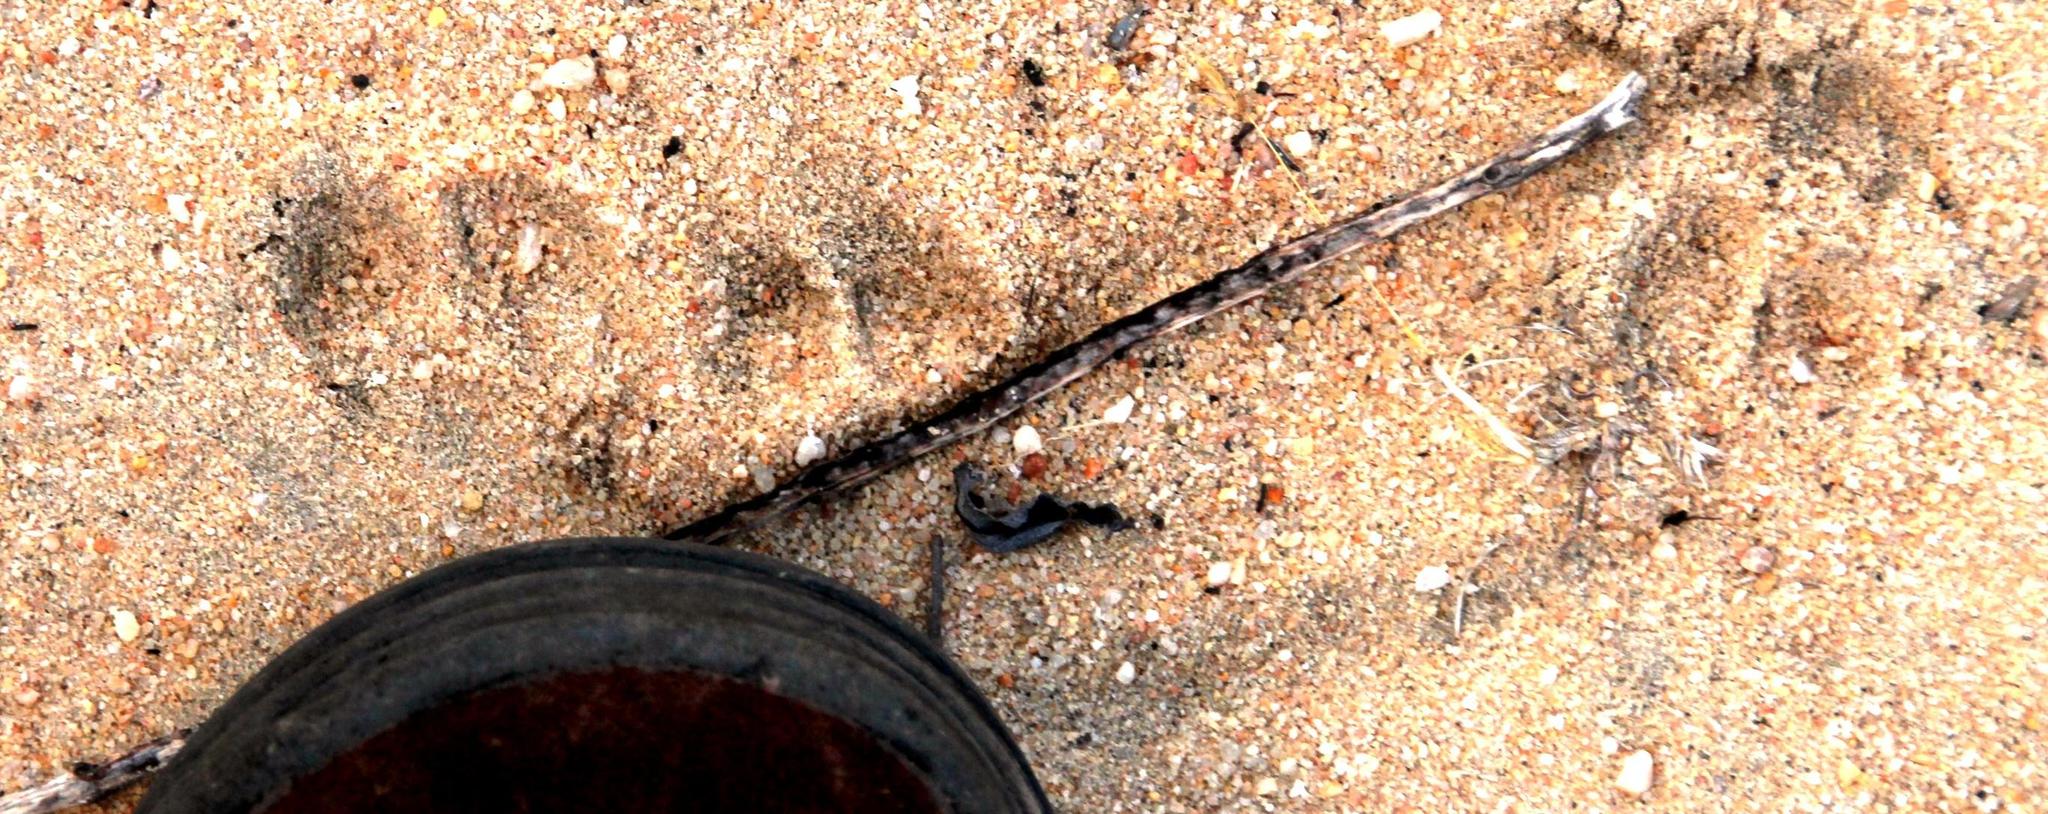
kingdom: Animalia
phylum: Chordata
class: Mammalia
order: Artiodactyla
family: Bovidae
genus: Oreotragus
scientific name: Oreotragus oreotragus
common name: Klipspringer
